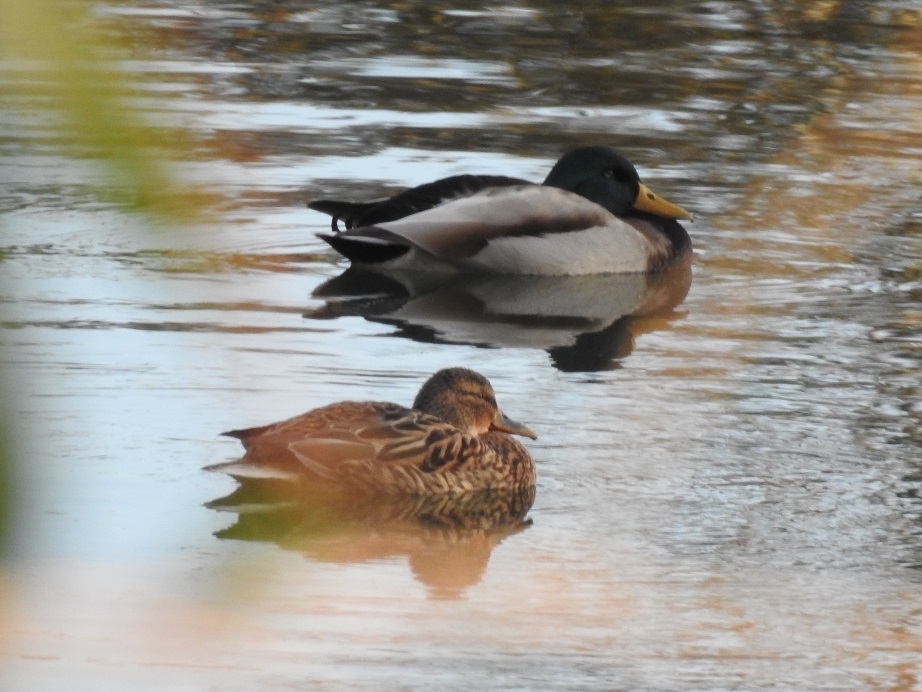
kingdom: Animalia
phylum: Chordata
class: Aves
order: Anseriformes
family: Anatidae
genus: Anas
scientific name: Anas platyrhynchos
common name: Mallard
